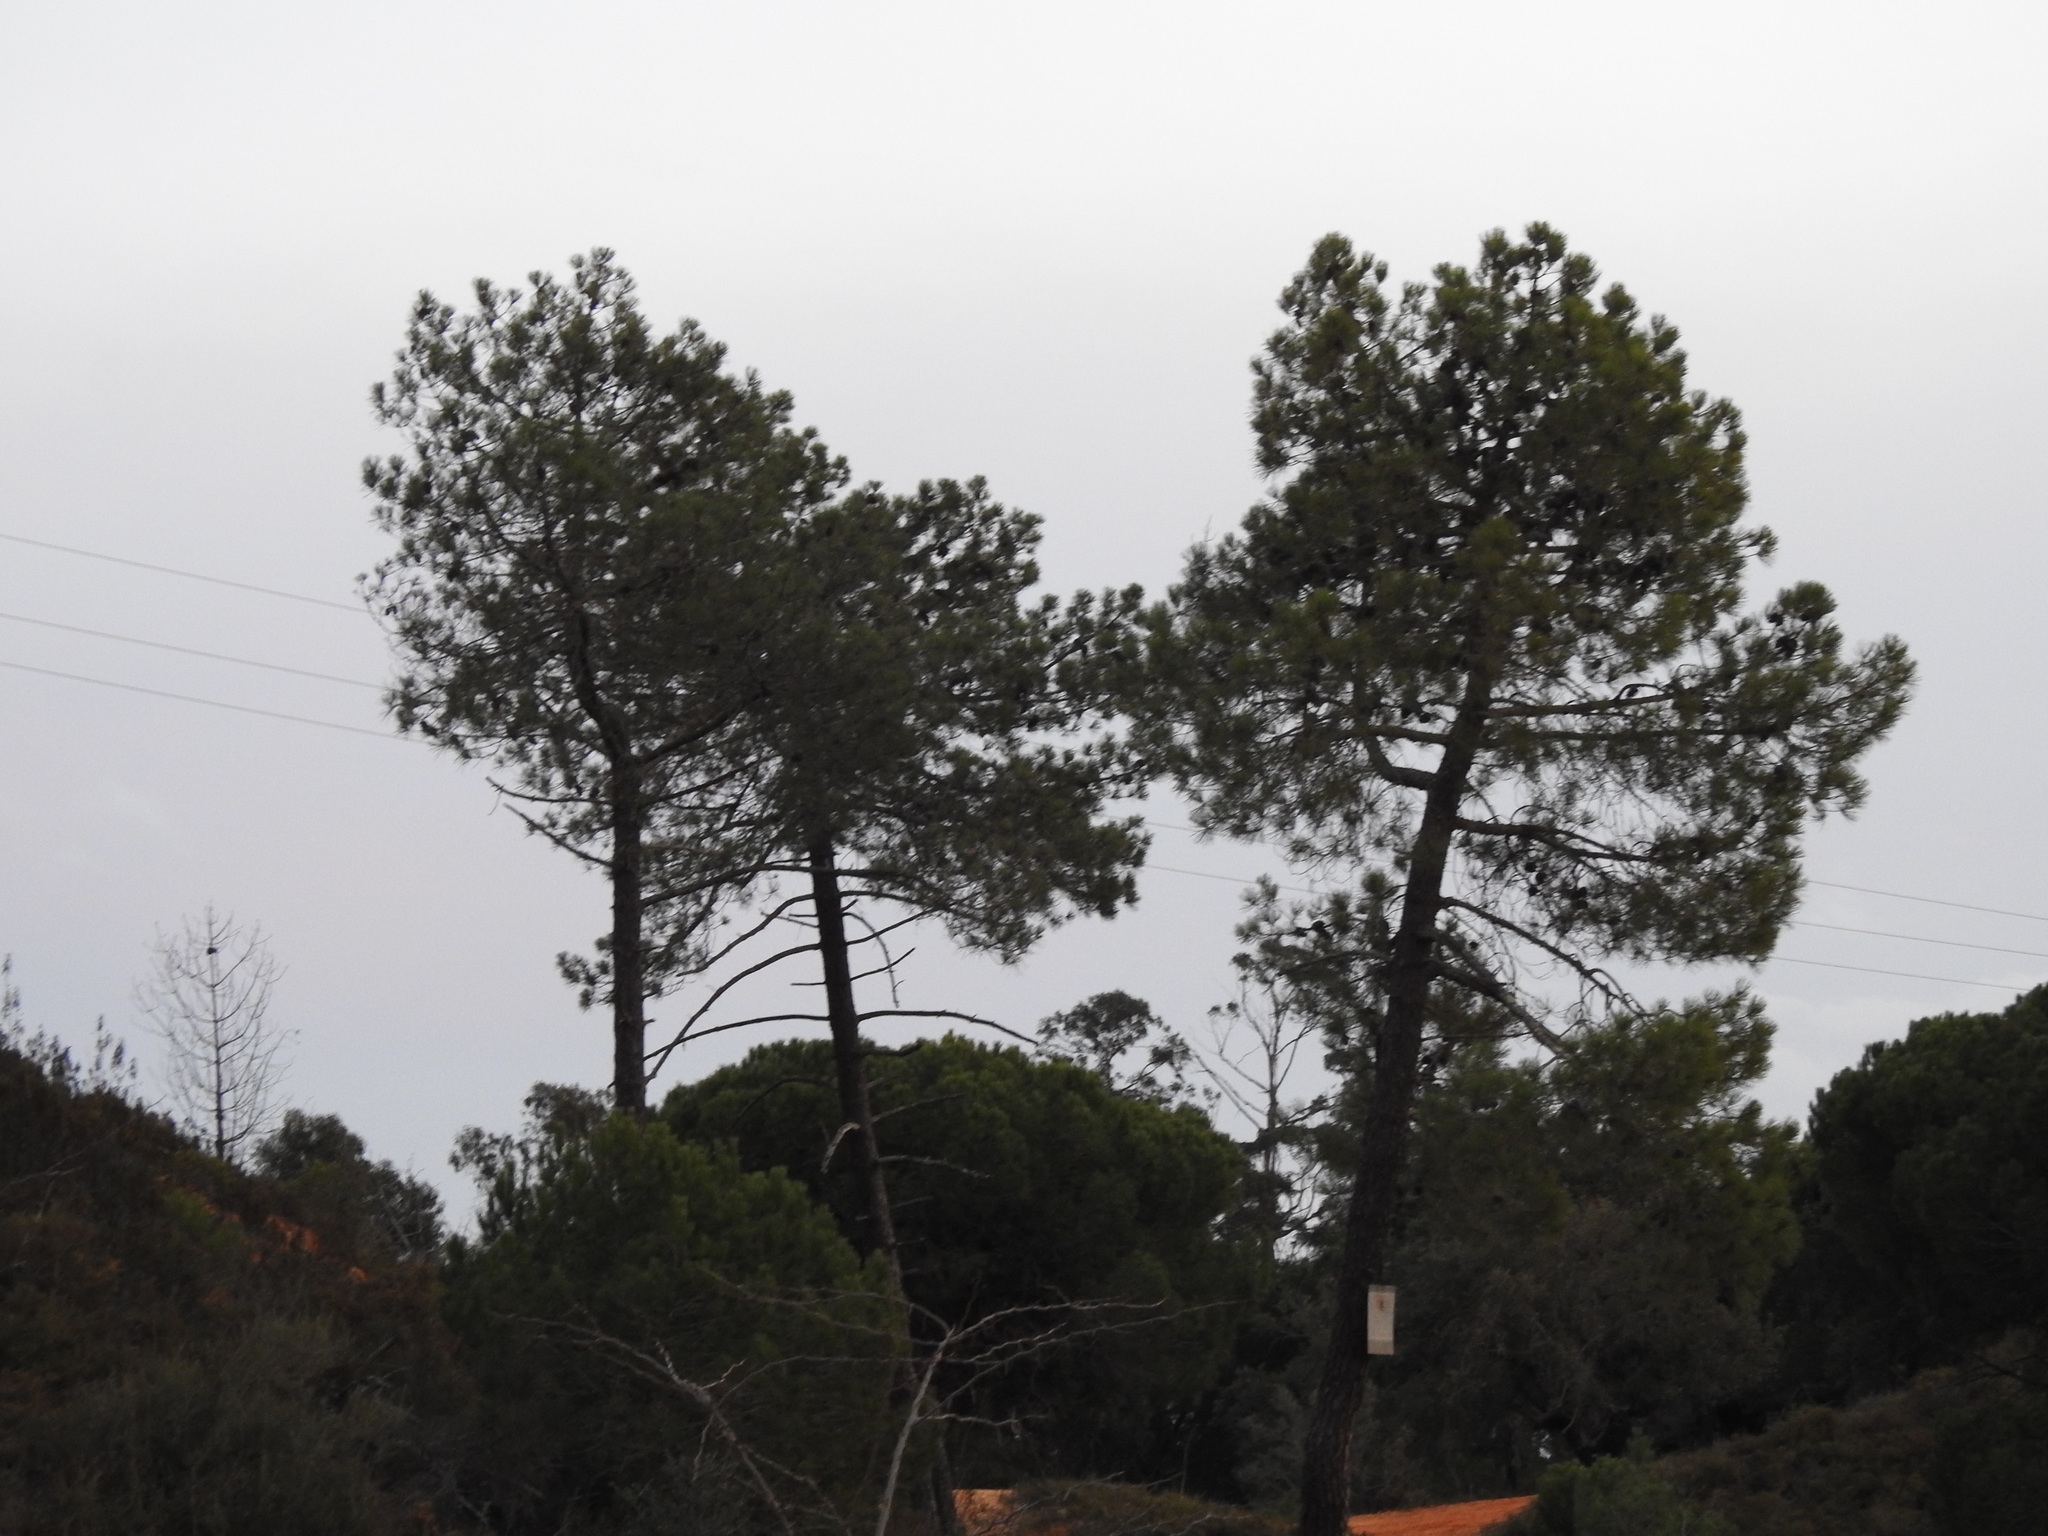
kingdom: Plantae
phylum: Tracheophyta
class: Pinopsida
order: Pinales
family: Pinaceae
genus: Pinus
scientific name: Pinus pinaster
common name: Maritime pine
